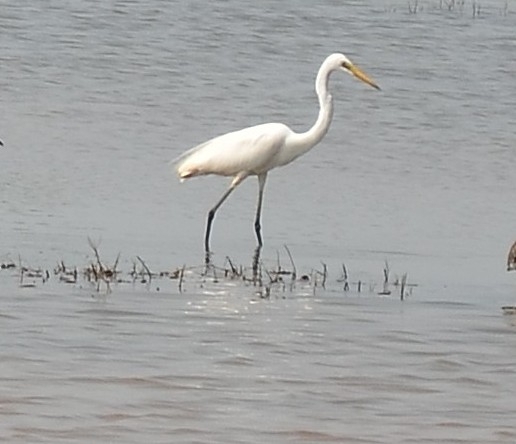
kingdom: Animalia
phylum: Chordata
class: Aves
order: Pelecaniformes
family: Ardeidae
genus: Ardea
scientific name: Ardea alba
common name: Great egret
